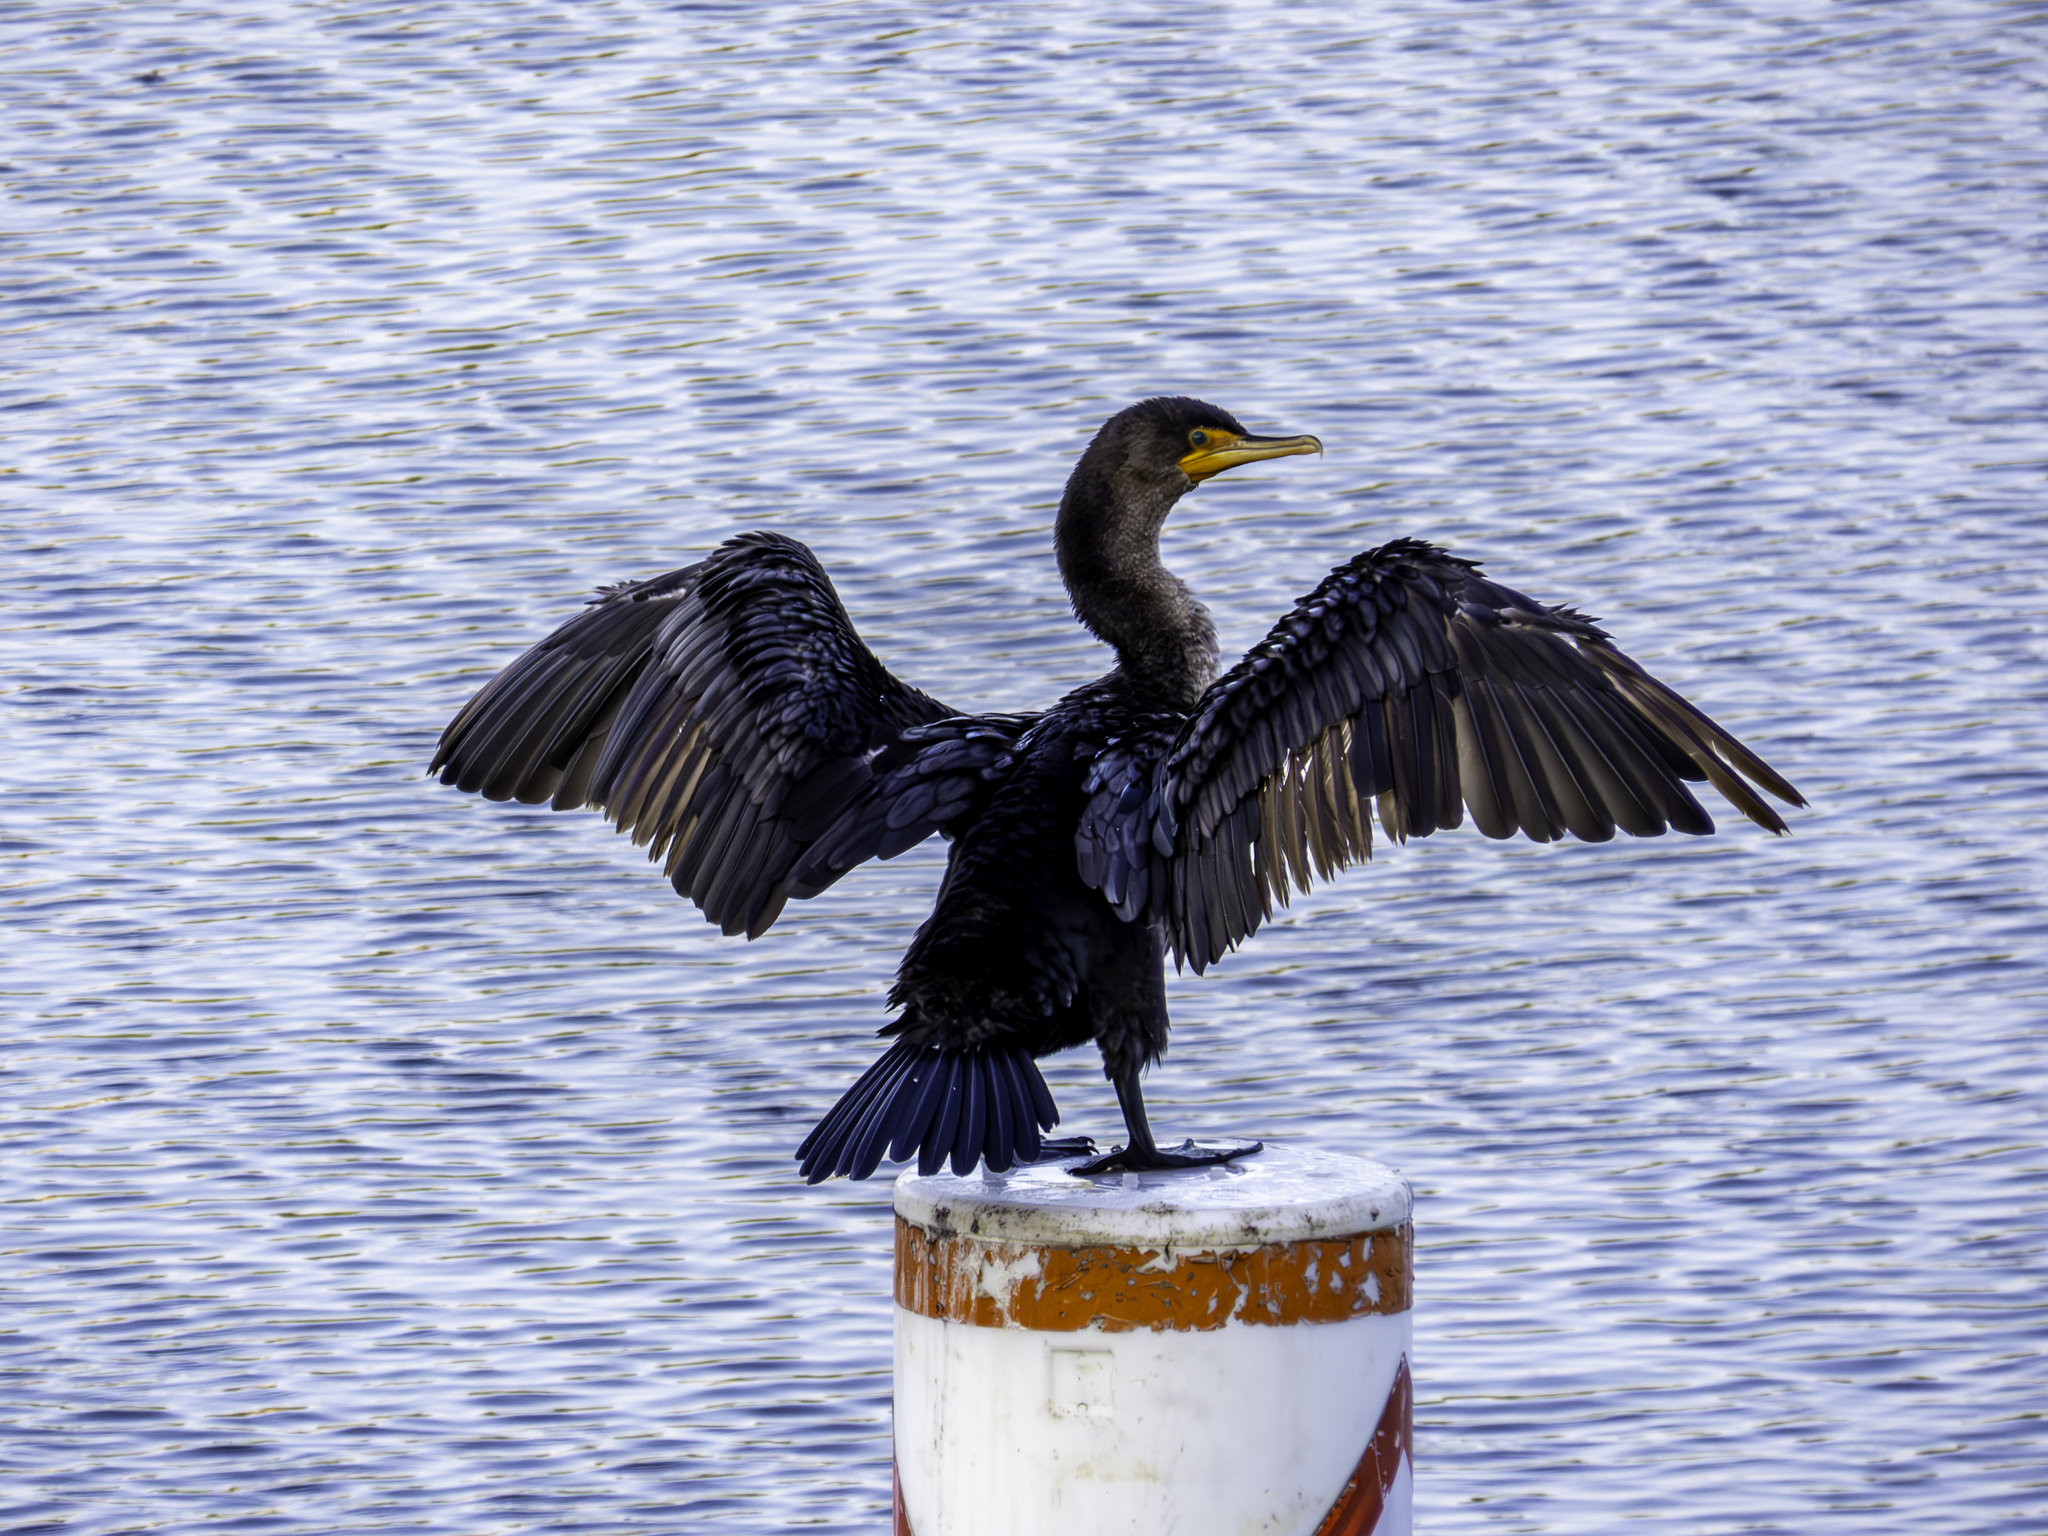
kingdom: Animalia
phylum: Chordata
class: Aves
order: Suliformes
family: Phalacrocoracidae
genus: Phalacrocorax
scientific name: Phalacrocorax auritus
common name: Double-crested cormorant
